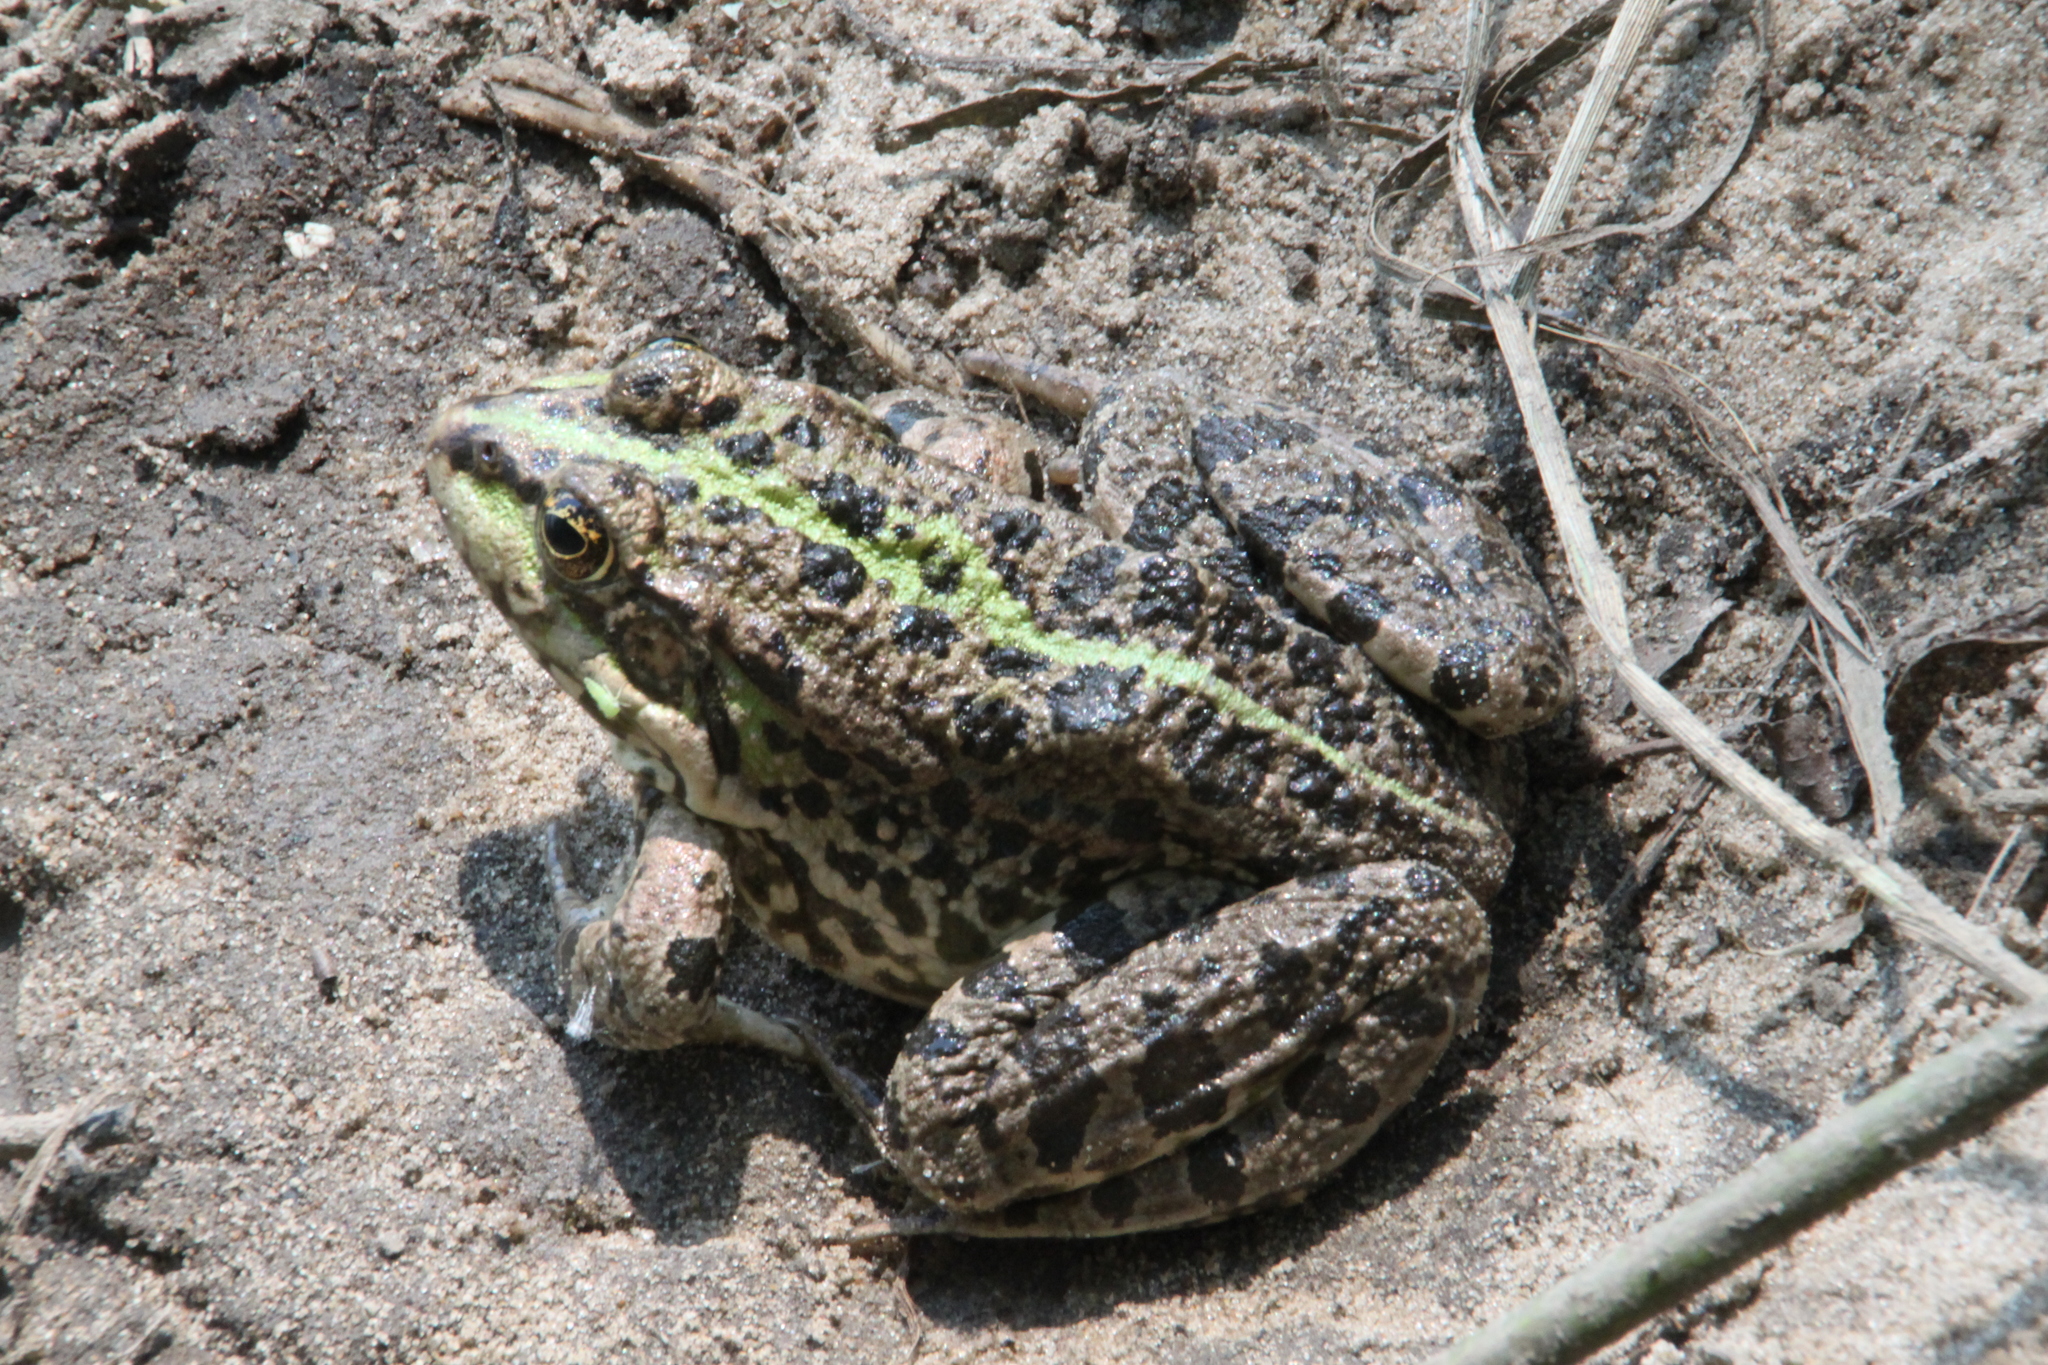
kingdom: Animalia
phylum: Chordata
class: Amphibia
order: Anura
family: Ranidae
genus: Pelophylax
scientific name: Pelophylax ridibundus
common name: Marsh frog
